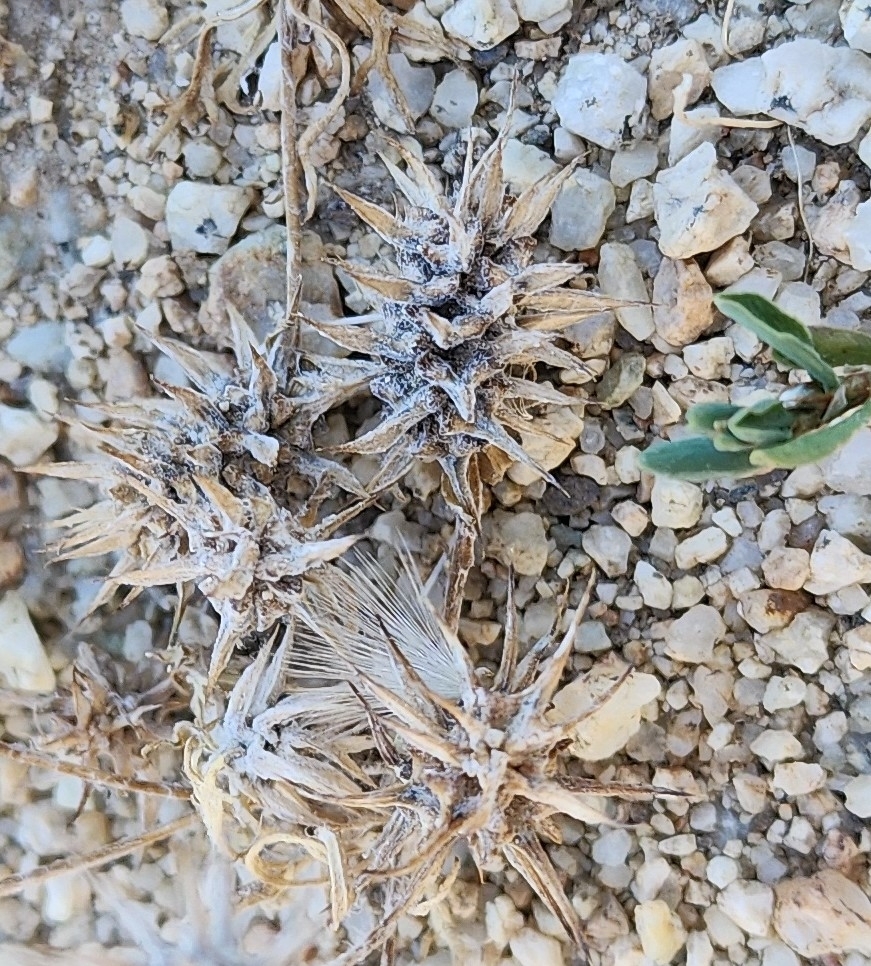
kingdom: Plantae
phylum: Tracheophyta
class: Magnoliopsida
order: Ranunculales
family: Ranunculaceae
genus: Ceratocephala
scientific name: Ceratocephala orthoceras
